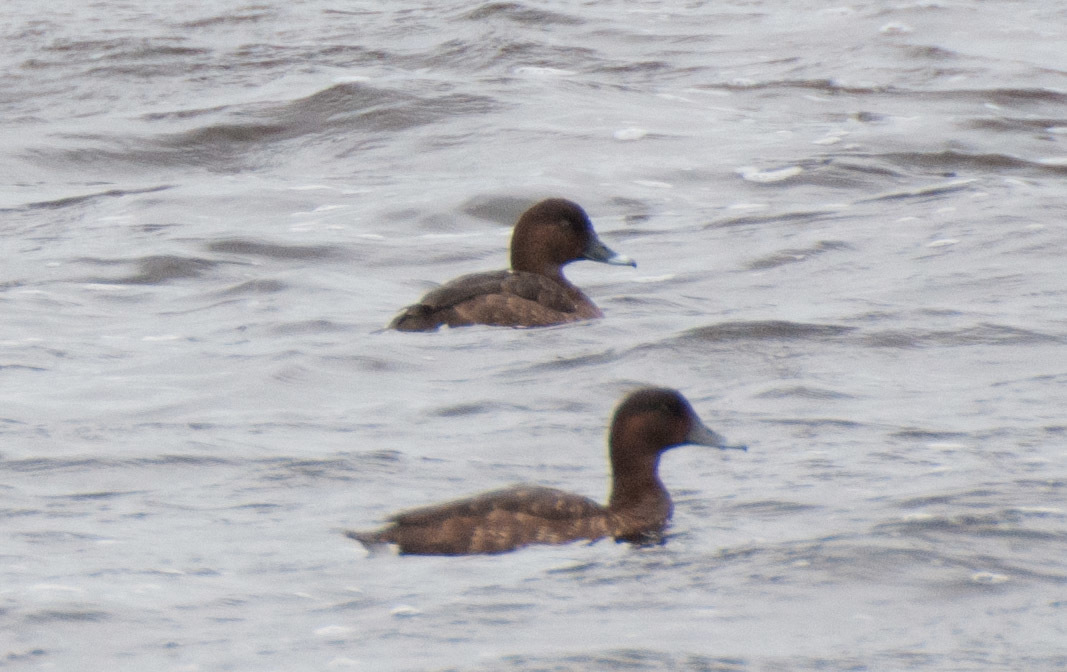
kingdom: Animalia
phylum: Chordata
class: Aves
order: Anseriformes
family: Anatidae
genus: Aythya
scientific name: Aythya australis
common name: Hardhead
